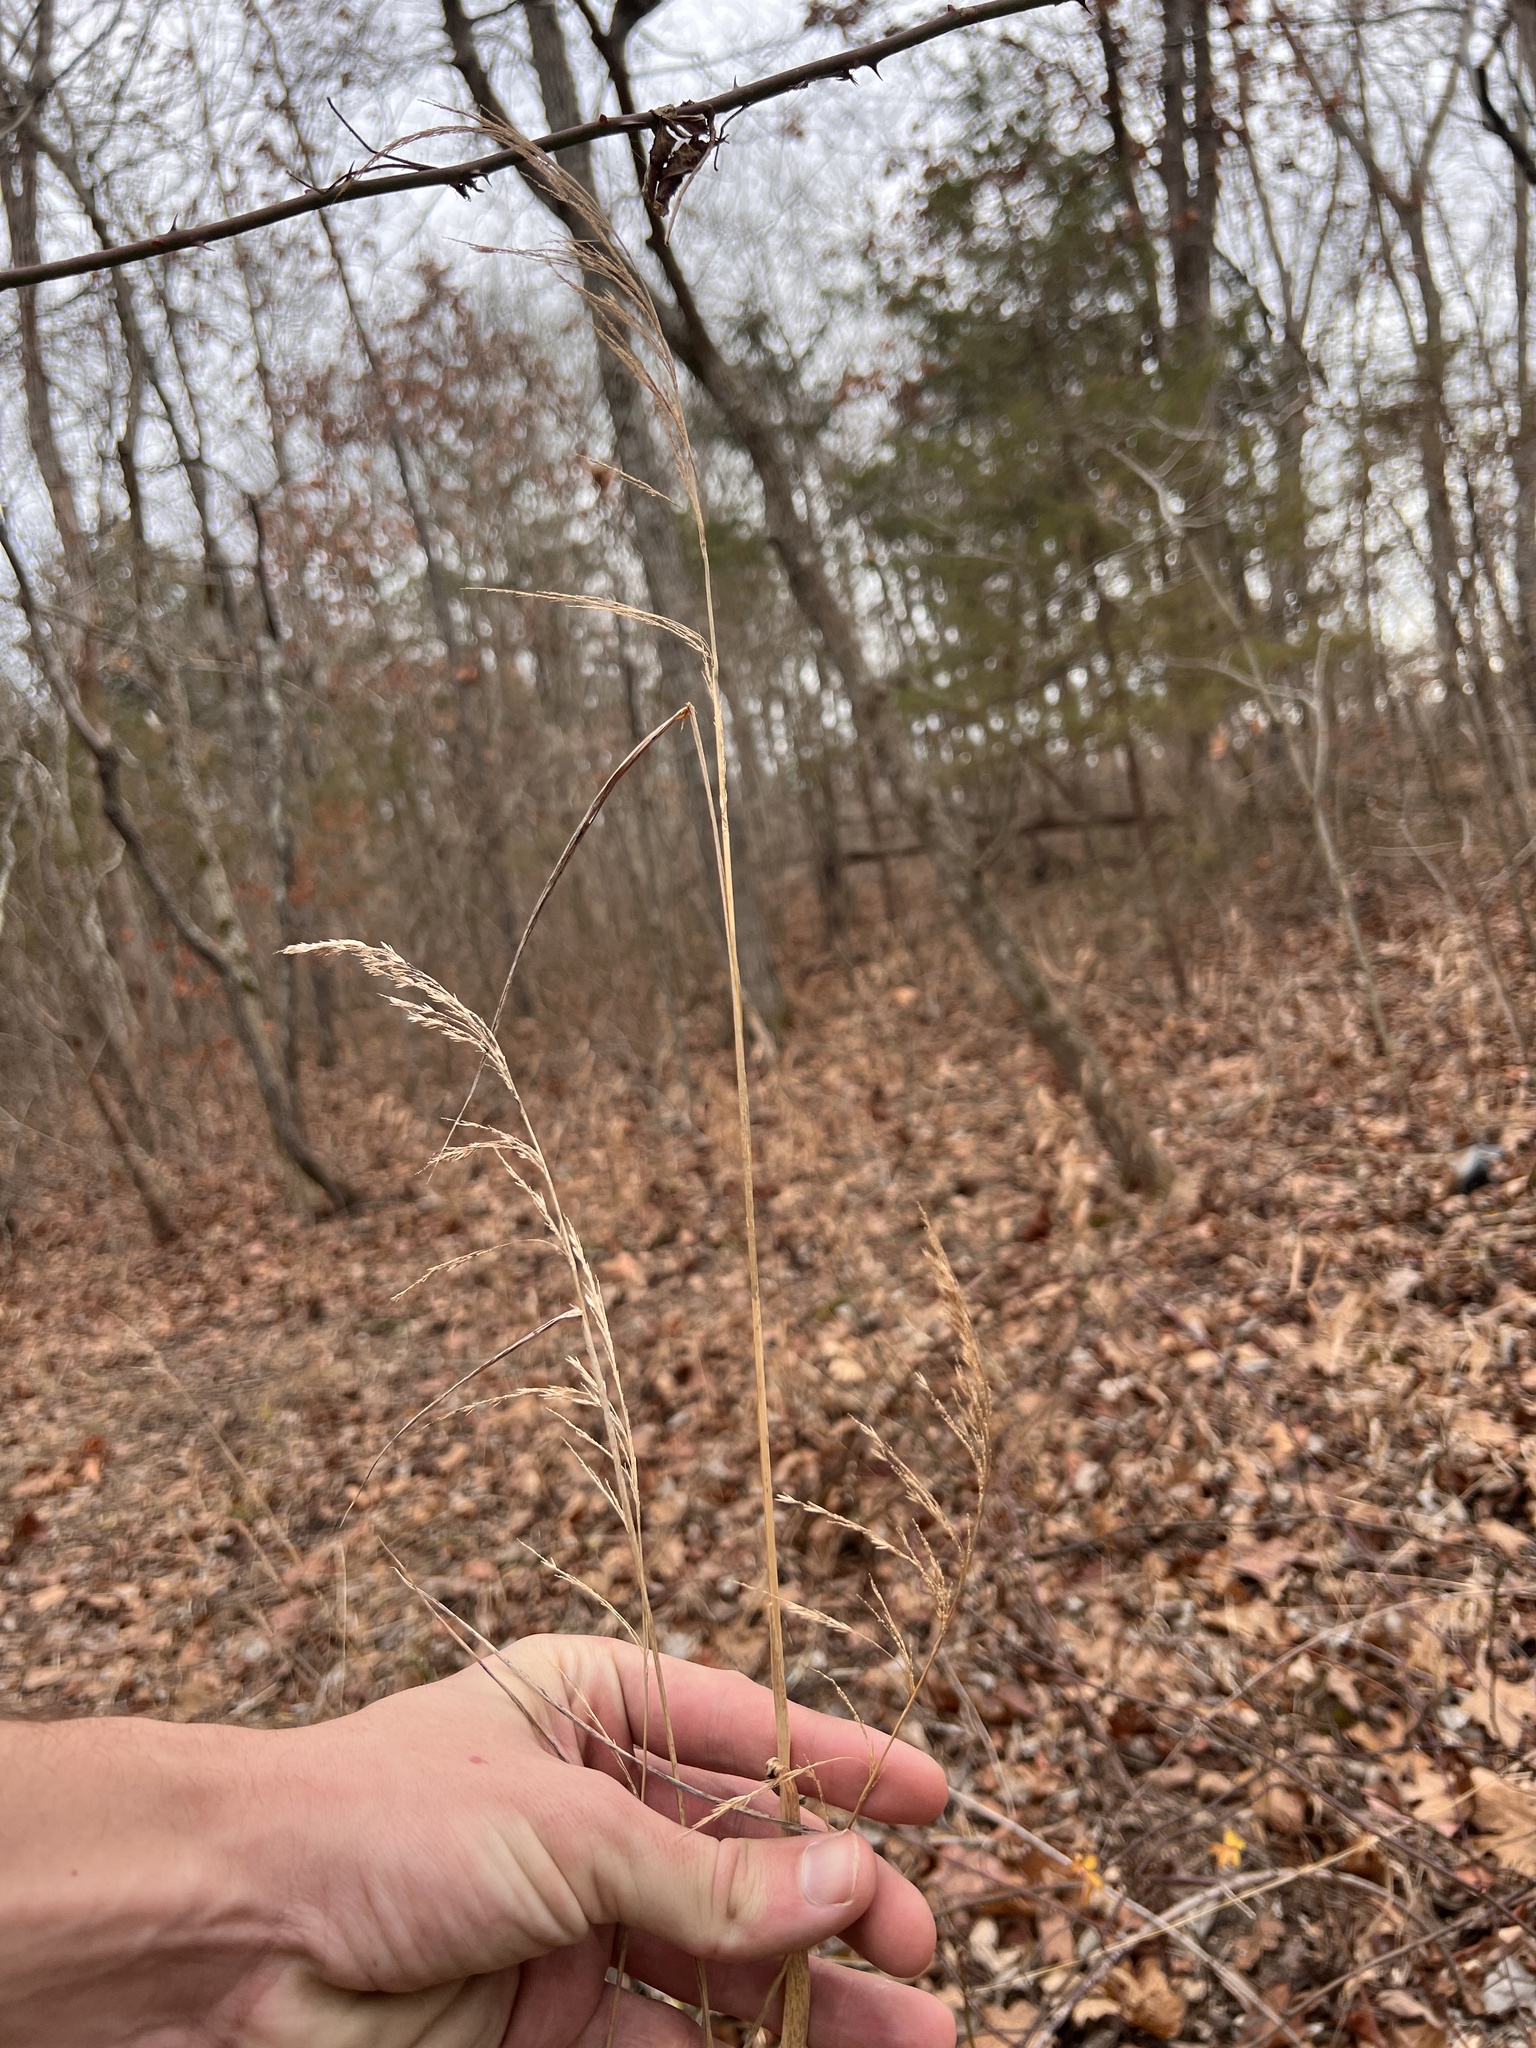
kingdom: Plantae
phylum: Tracheophyta
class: Liliopsida
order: Poales
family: Poaceae
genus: Cinna
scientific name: Cinna arundinacea
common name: Stout woodreed
